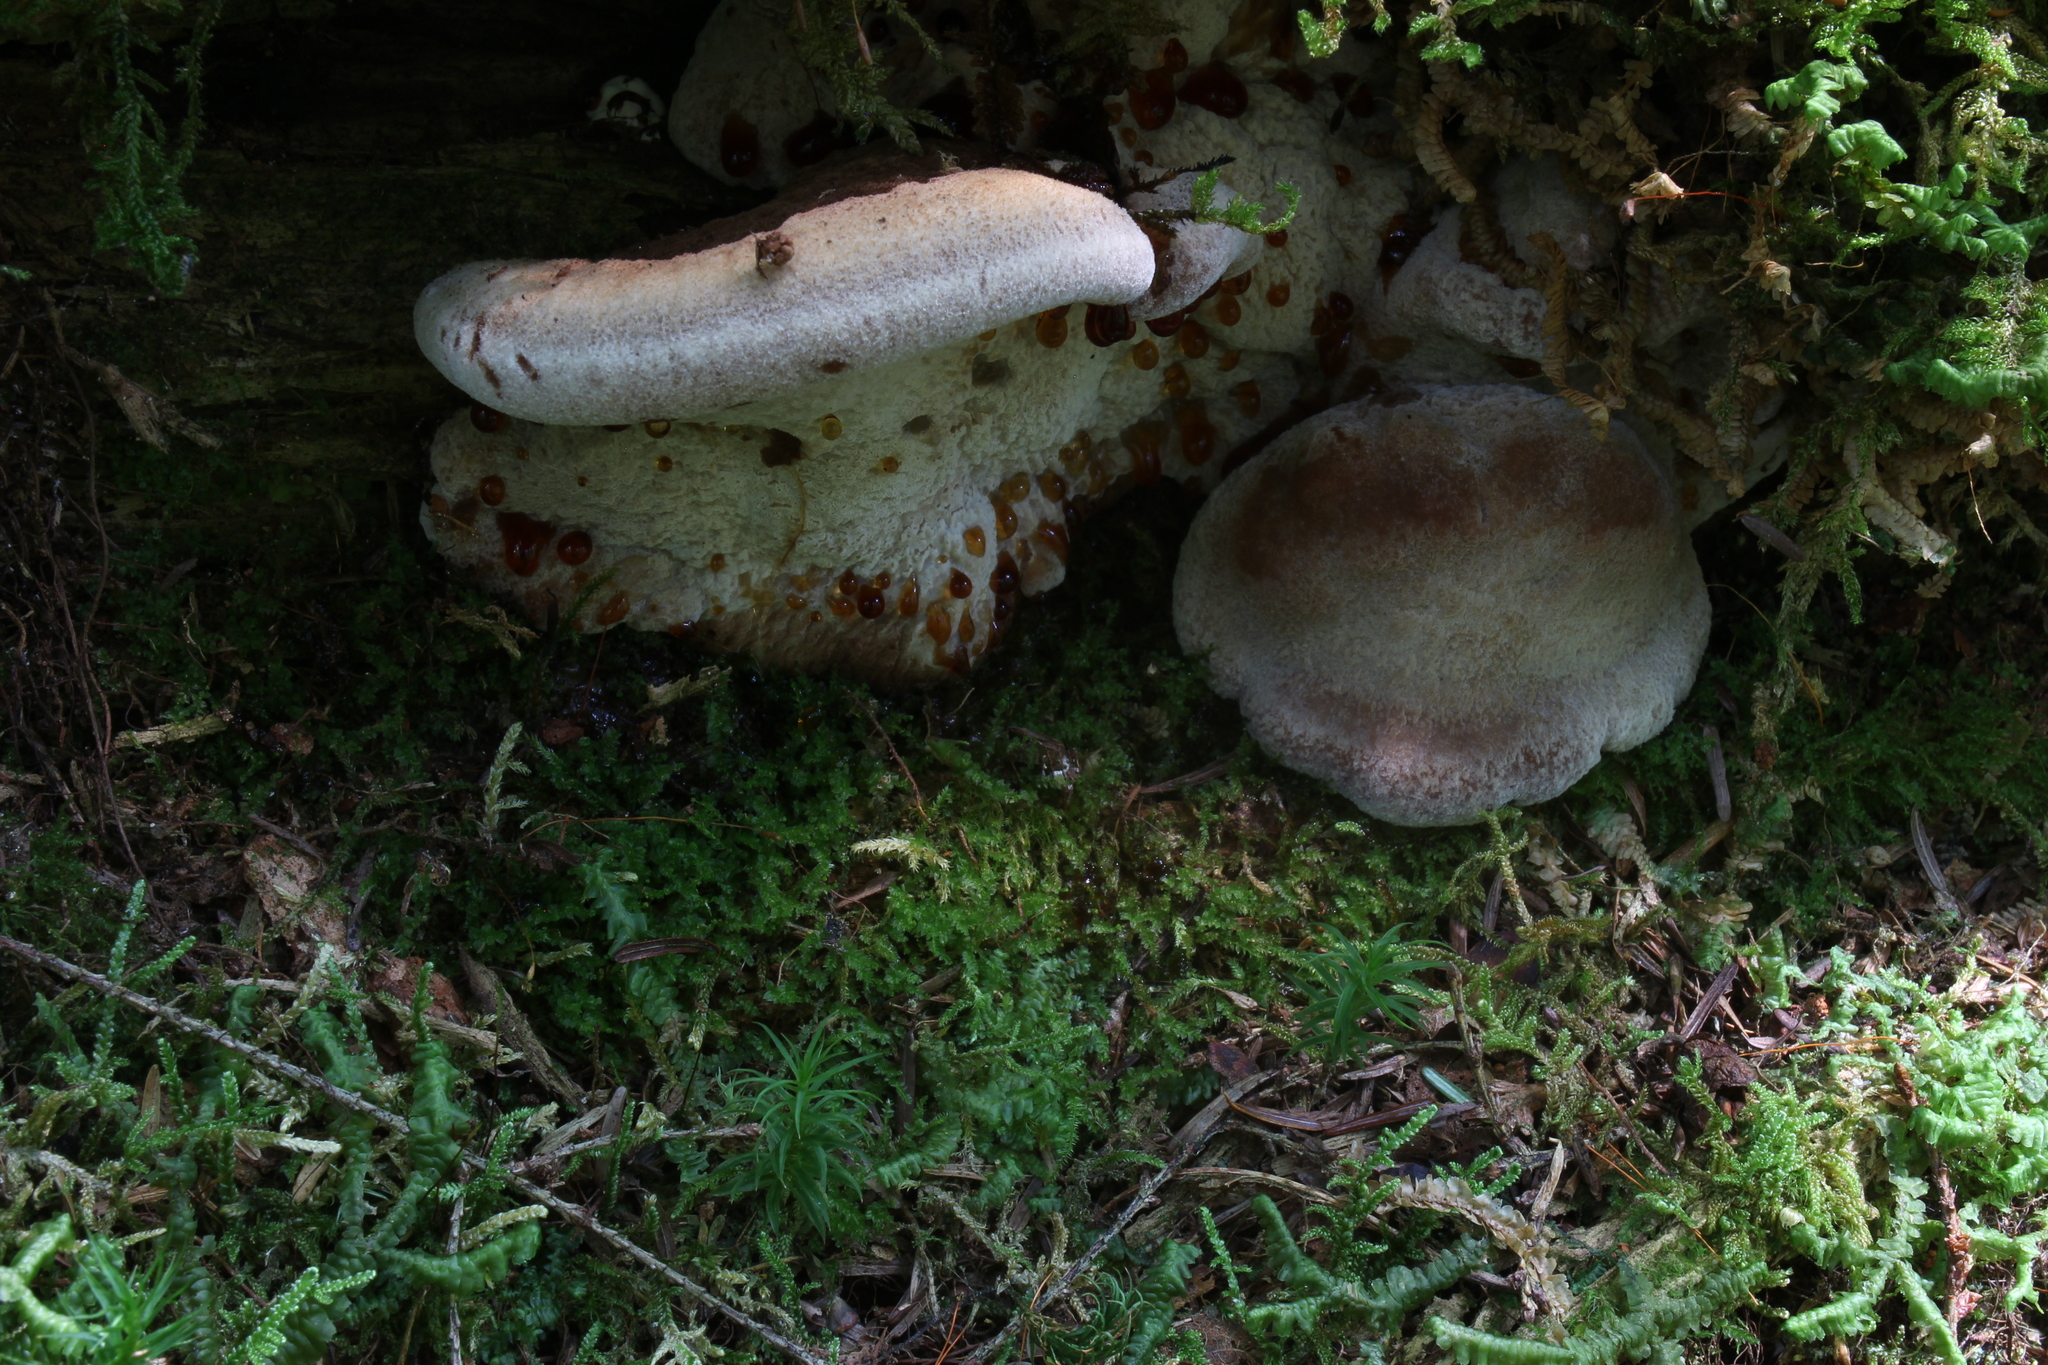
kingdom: Fungi
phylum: Basidiomycota
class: Agaricomycetes
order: Polyporales
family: Ischnodermataceae
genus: Ischnoderma
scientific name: Ischnoderma resinosum
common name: Resinous polypore
